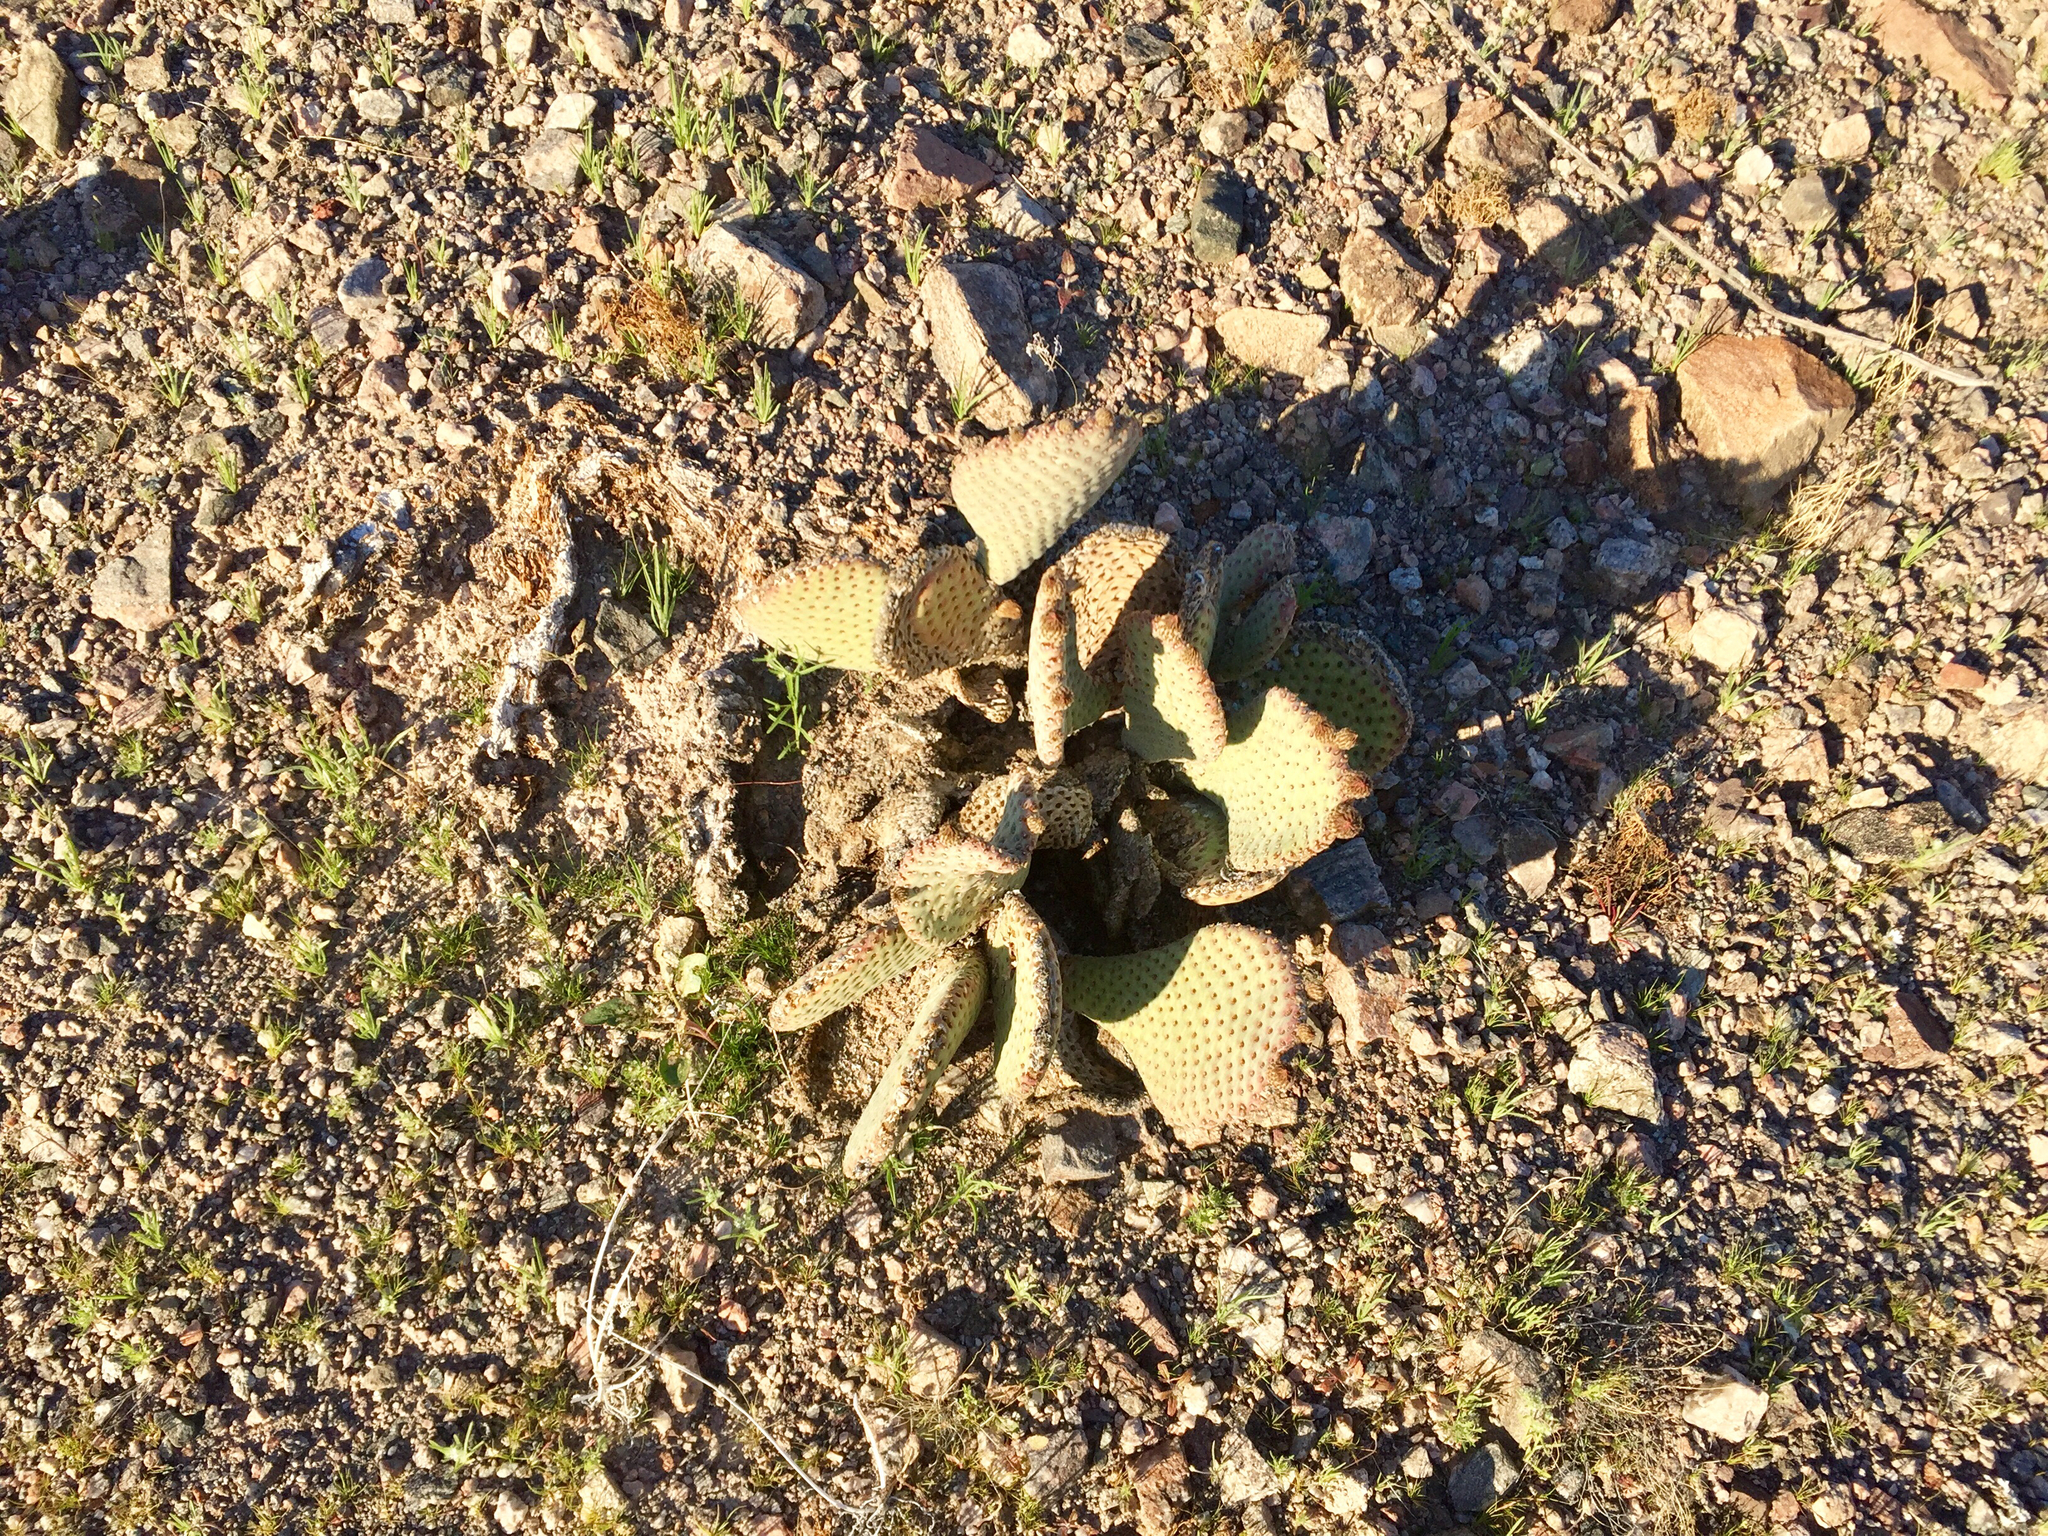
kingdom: Plantae
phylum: Tracheophyta
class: Magnoliopsida
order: Caryophyllales
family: Cactaceae
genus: Opuntia
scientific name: Opuntia basilaris
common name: Beavertail prickly-pear
